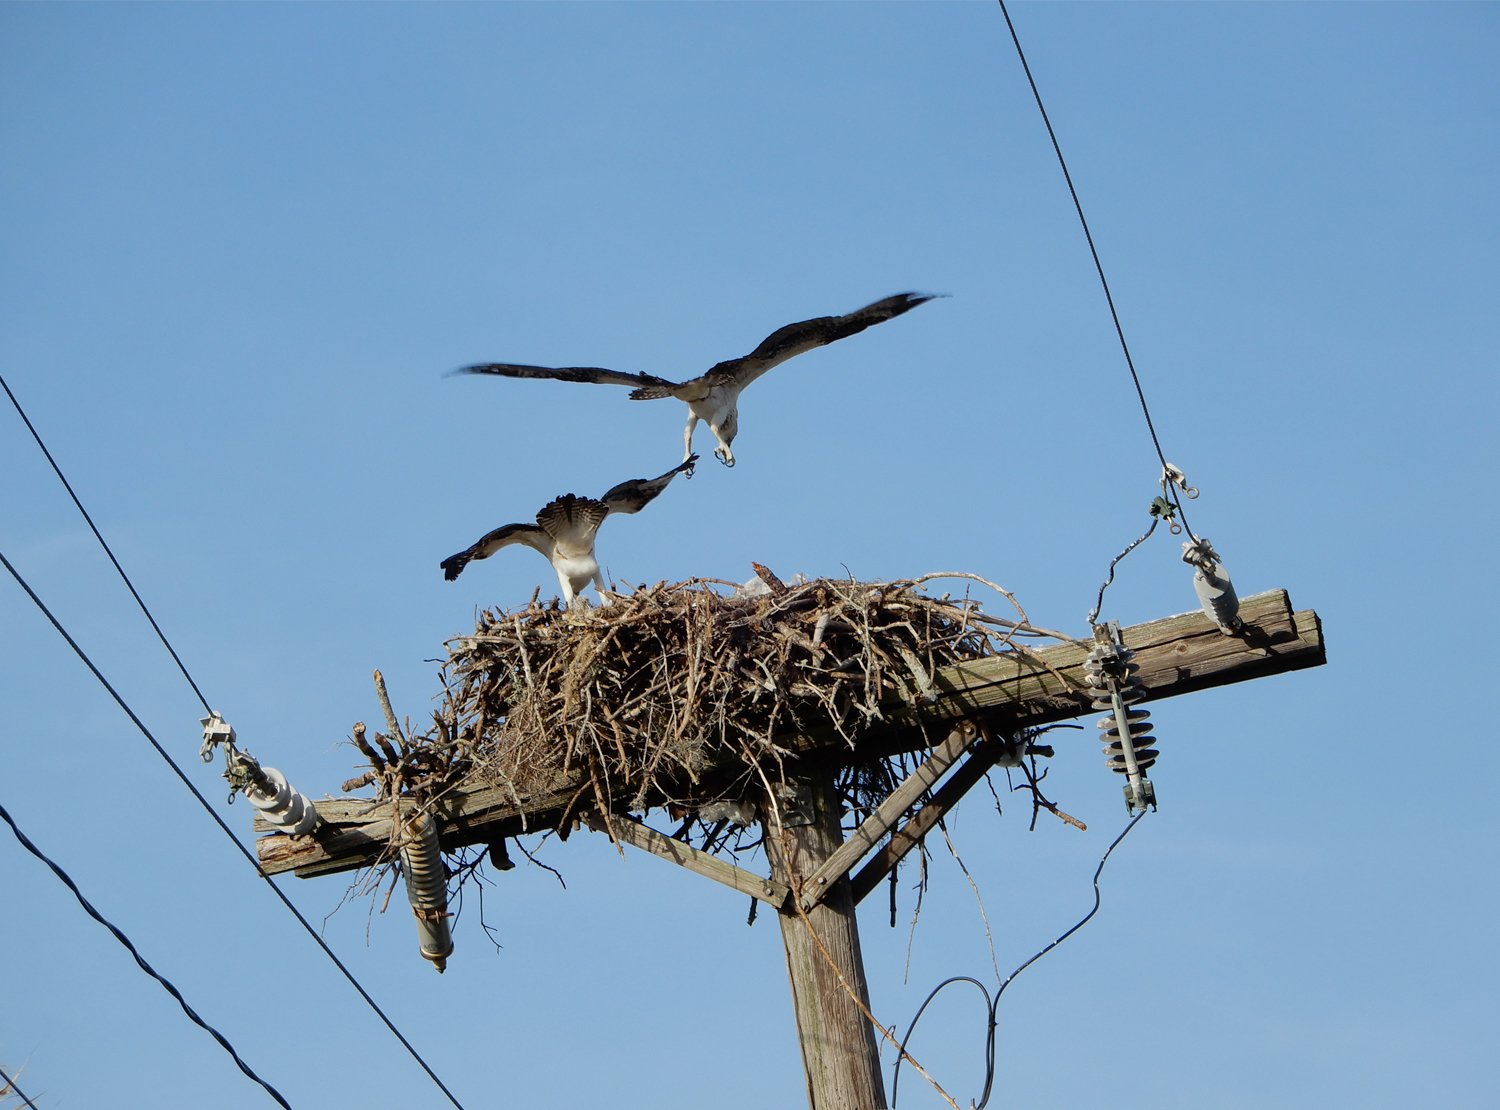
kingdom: Animalia
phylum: Chordata
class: Aves
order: Accipitriformes
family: Pandionidae
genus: Pandion
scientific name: Pandion haliaetus
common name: Osprey
